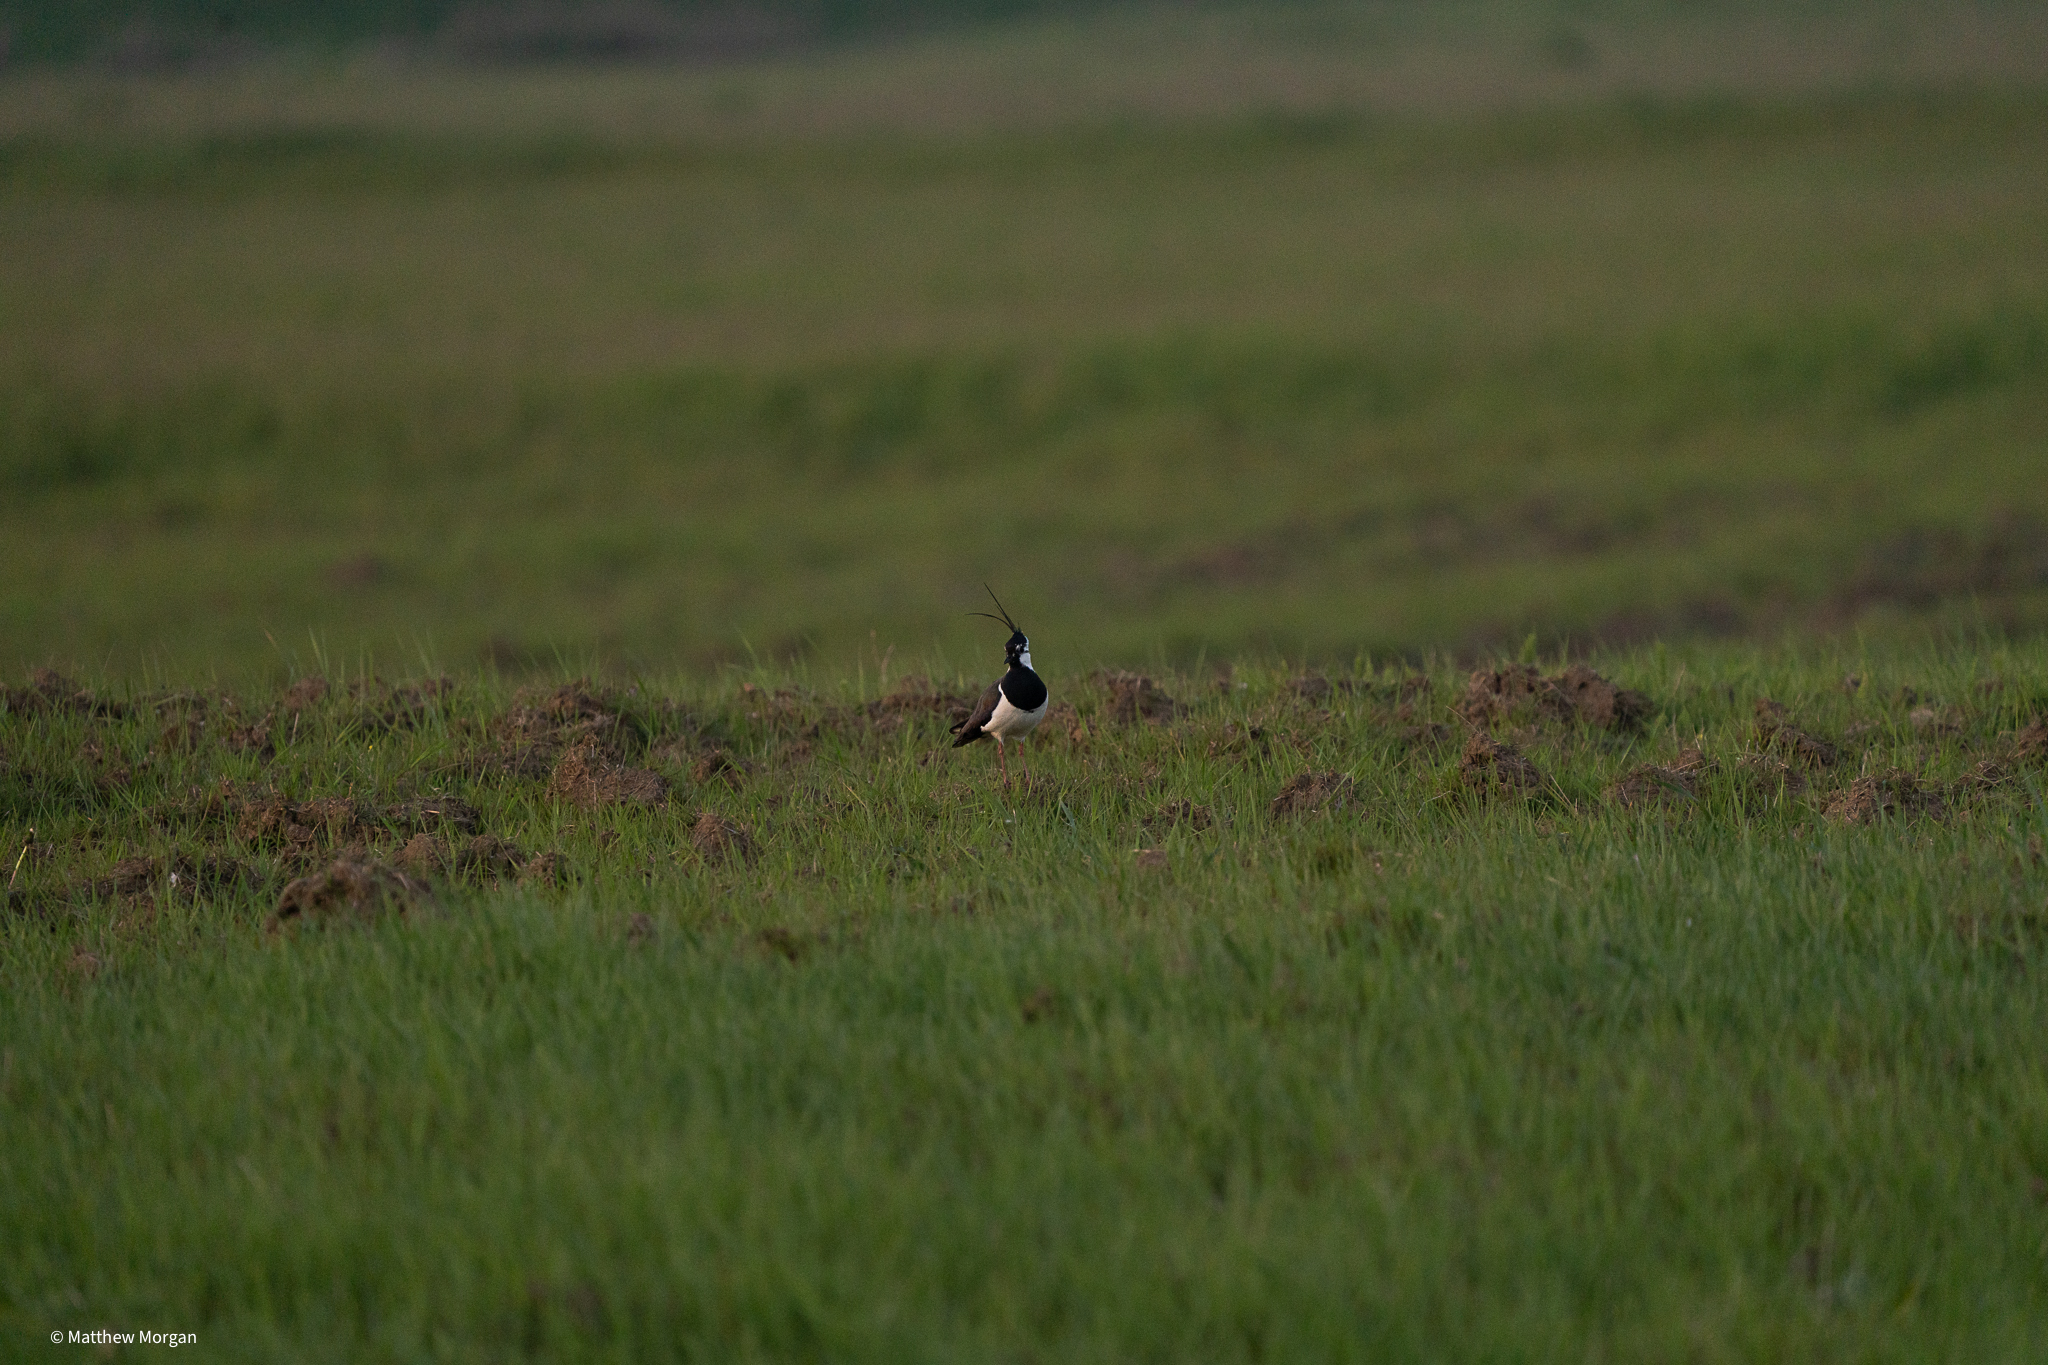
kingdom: Animalia
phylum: Chordata
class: Aves
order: Charadriiformes
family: Charadriidae
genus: Vanellus
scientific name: Vanellus vanellus
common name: Northern lapwing
